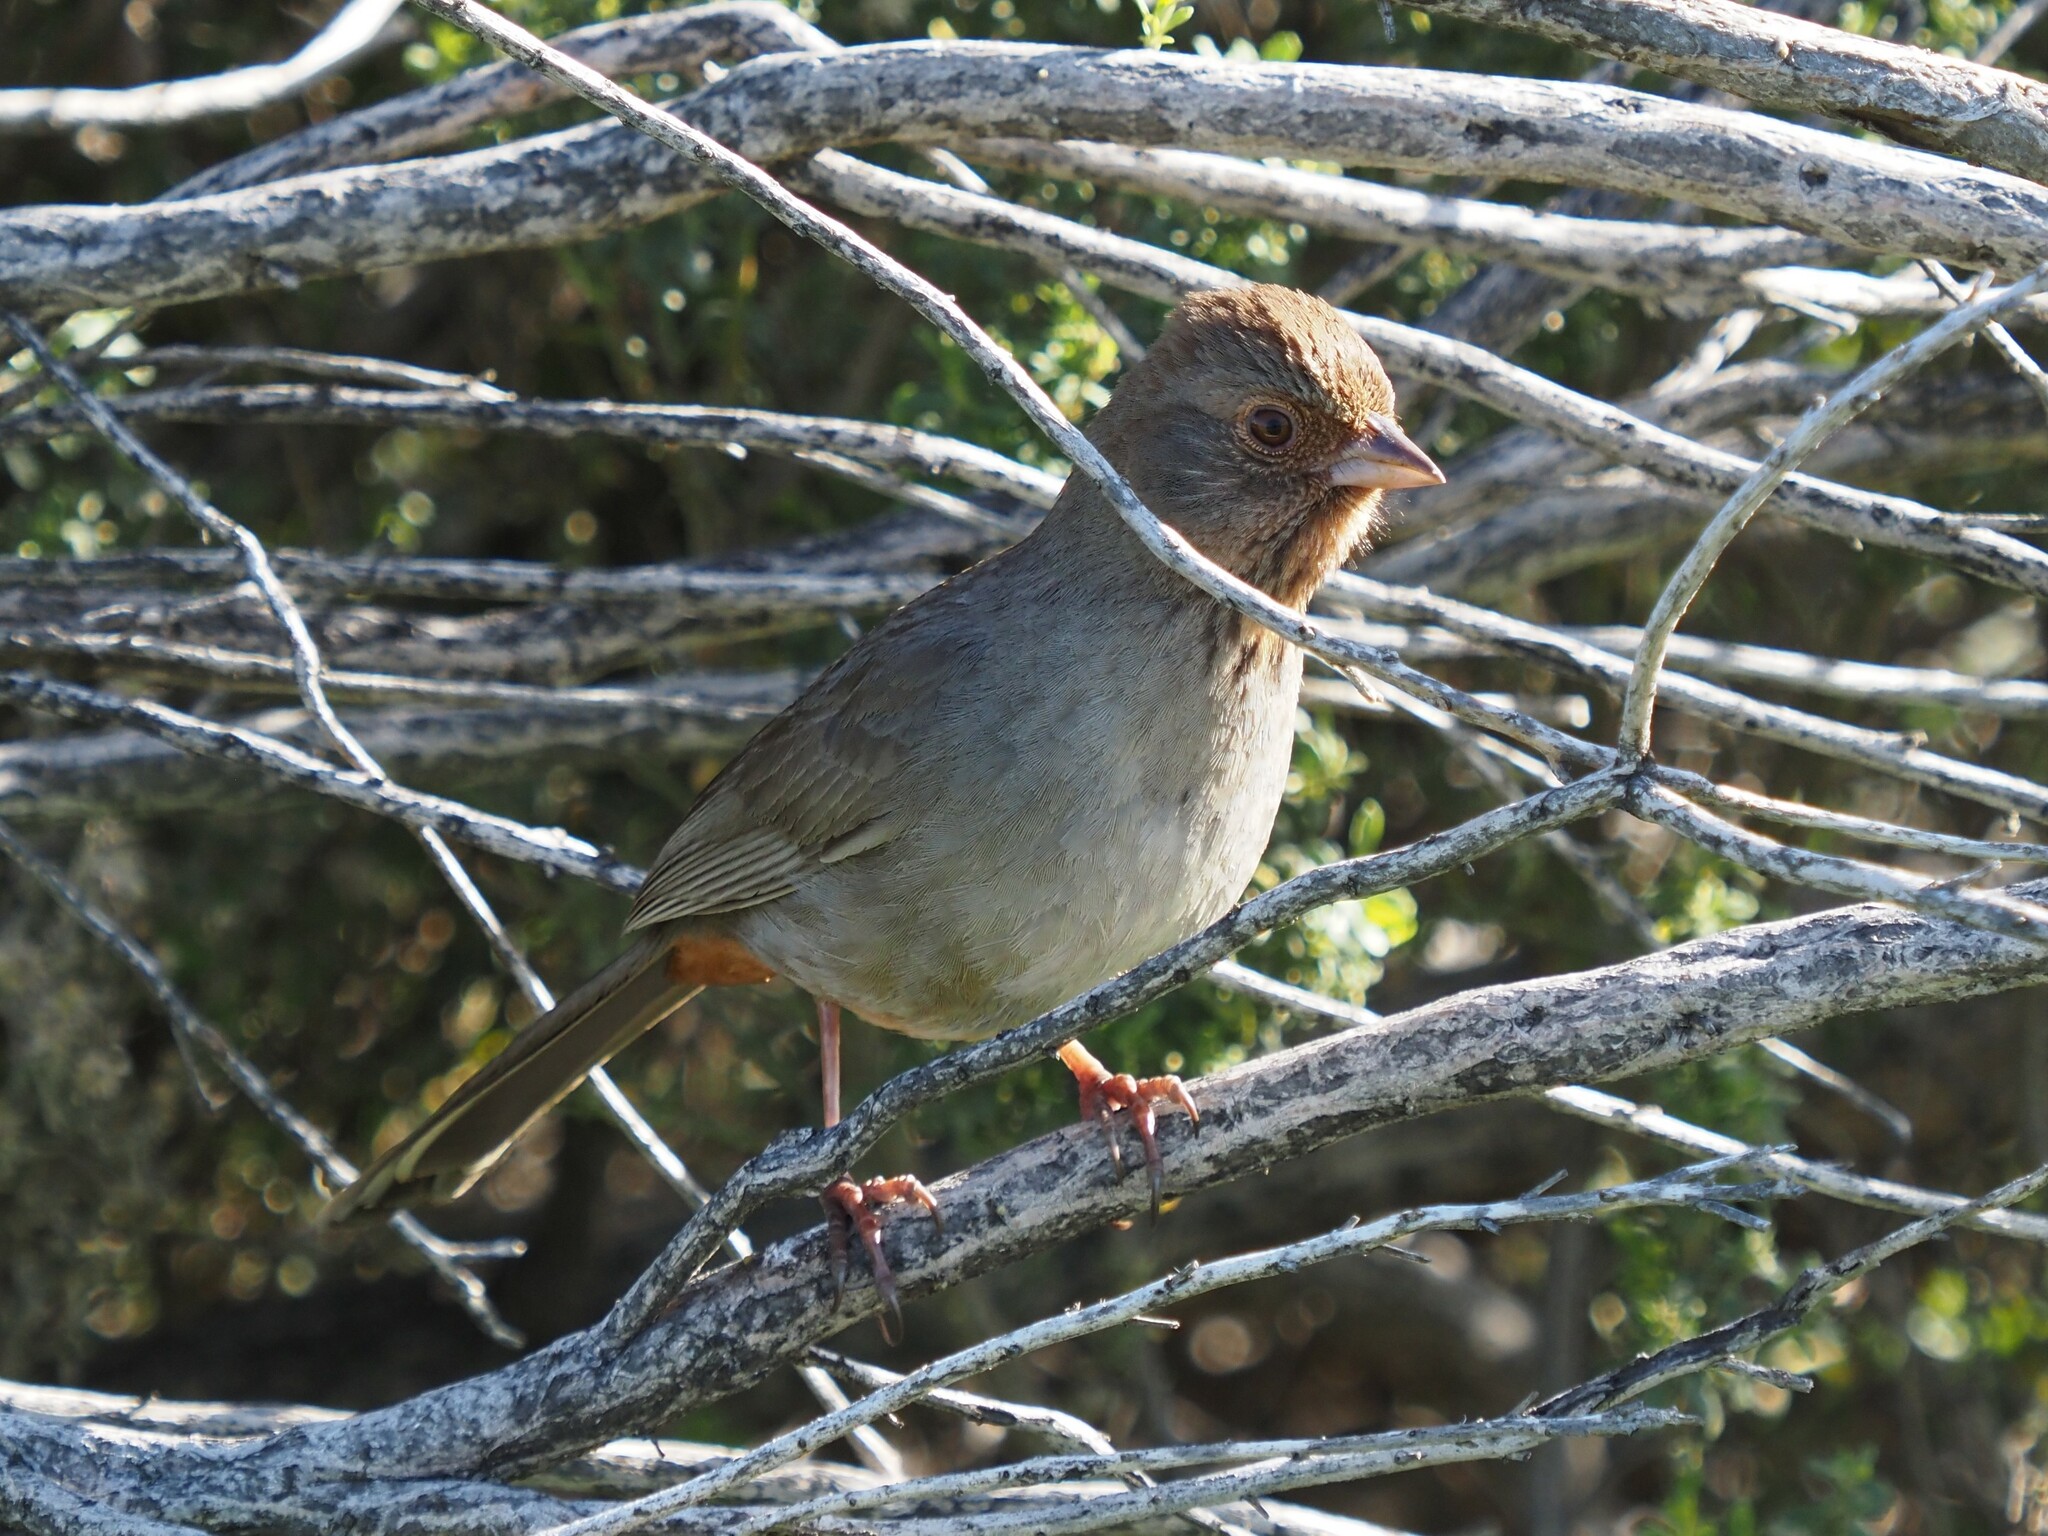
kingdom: Animalia
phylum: Chordata
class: Aves
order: Passeriformes
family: Passerellidae
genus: Melozone
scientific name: Melozone crissalis
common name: California towhee
